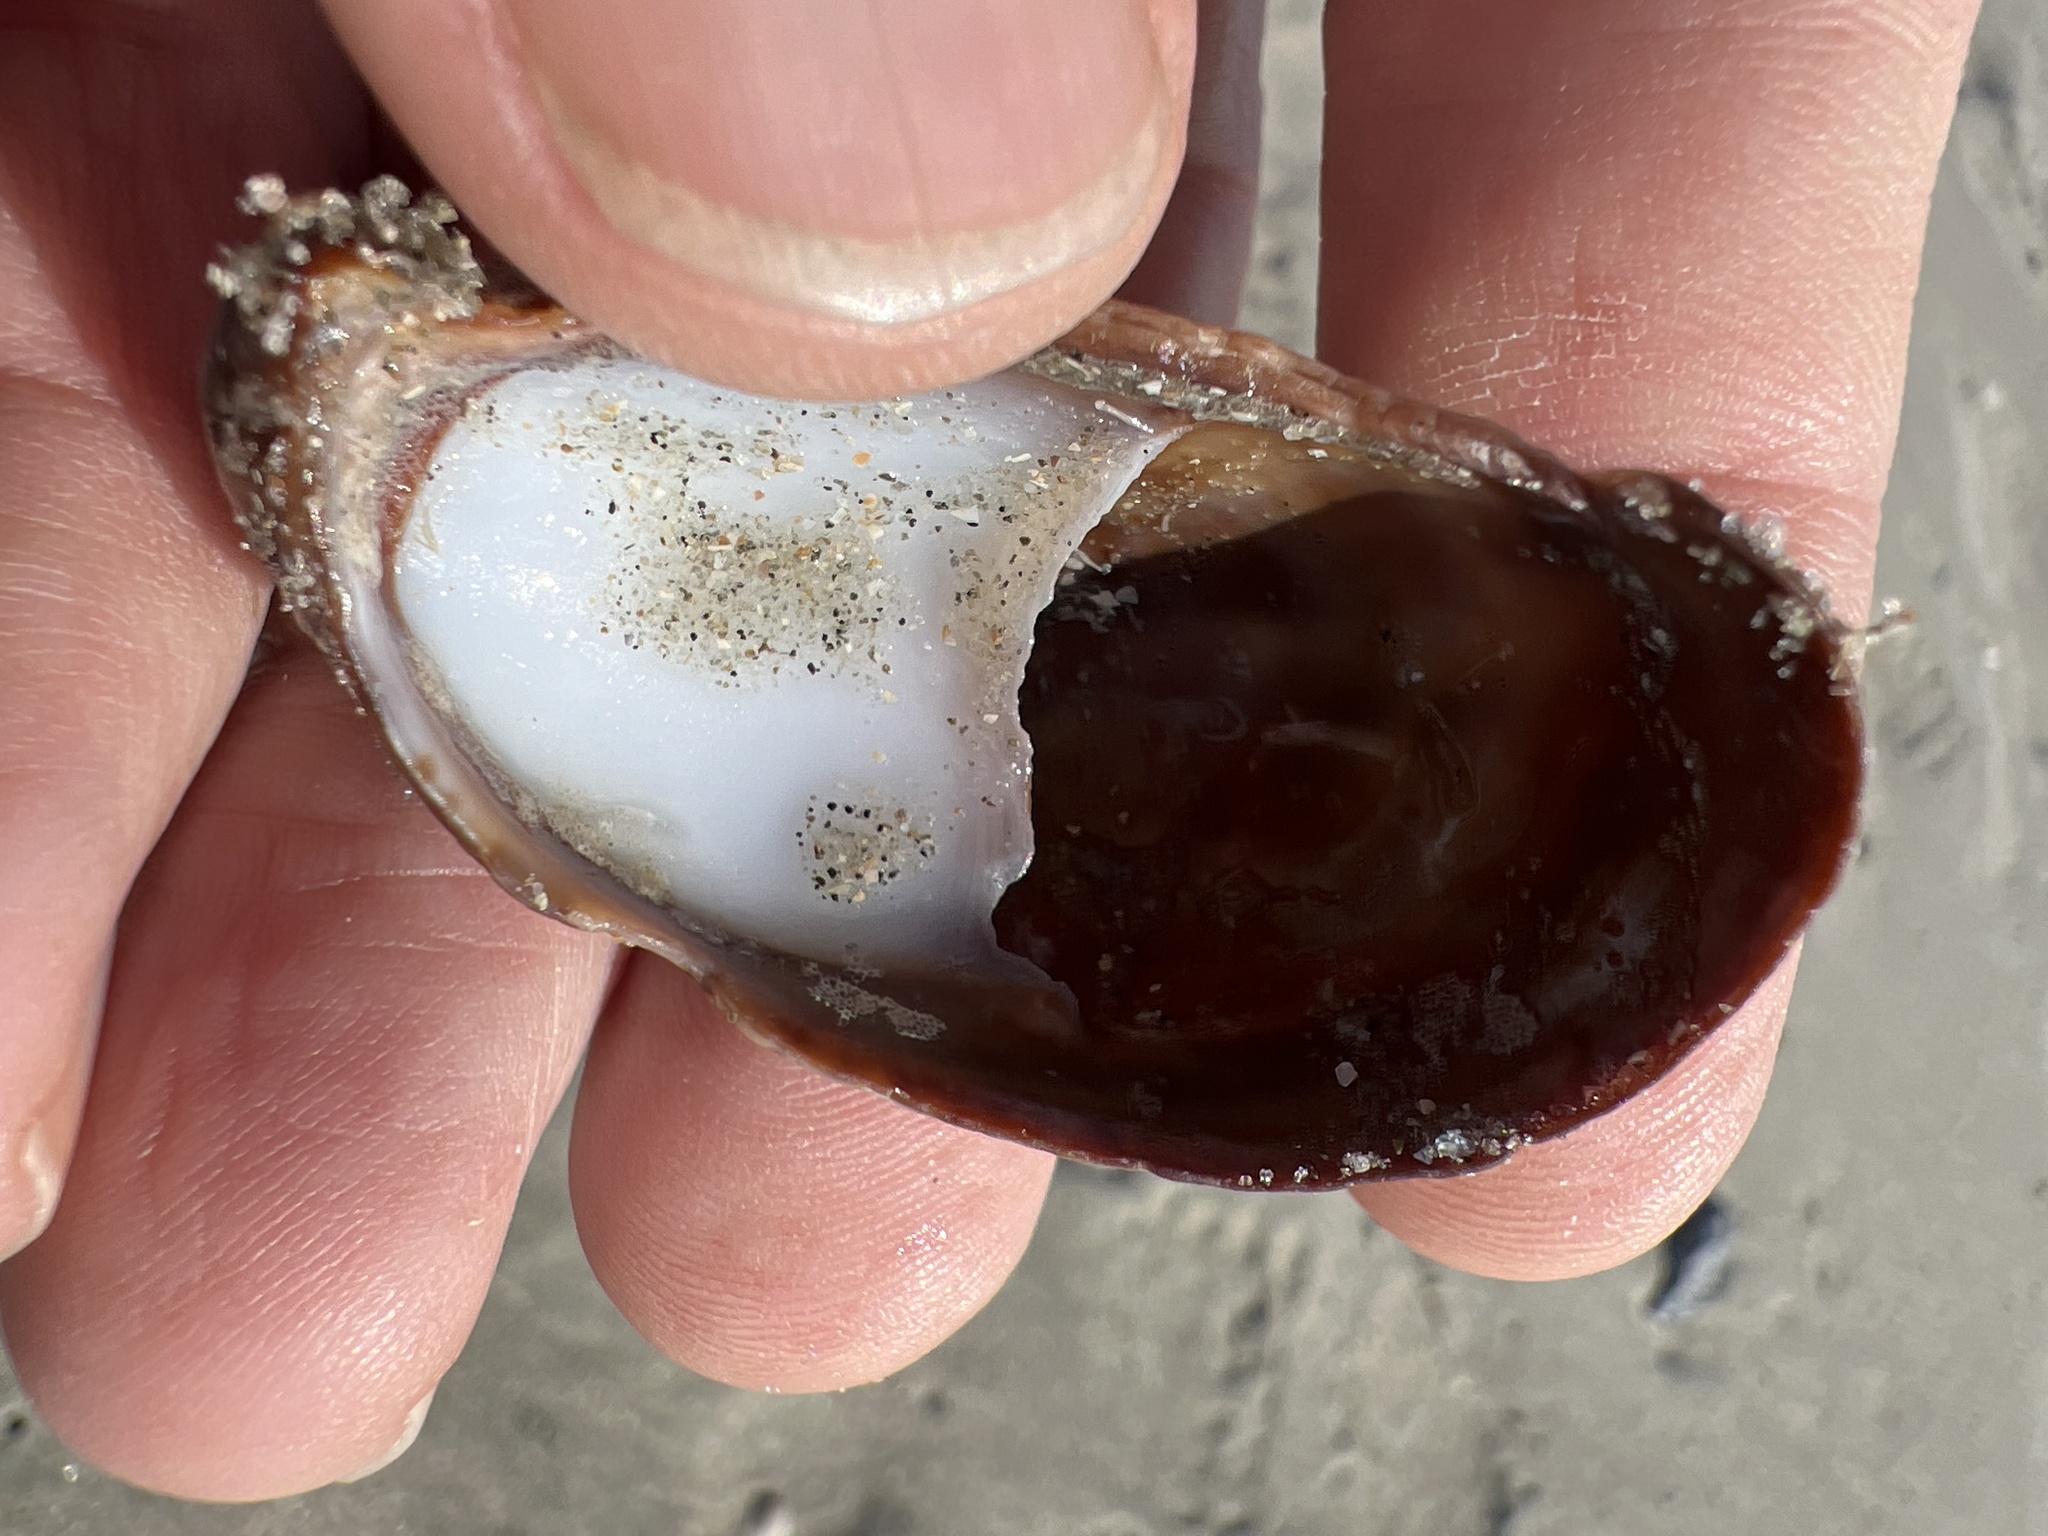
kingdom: Animalia
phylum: Mollusca
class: Gastropoda
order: Littorinimorpha
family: Calyptraeidae
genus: Crepidula
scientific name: Crepidula fornicata
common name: Slipper limpet
